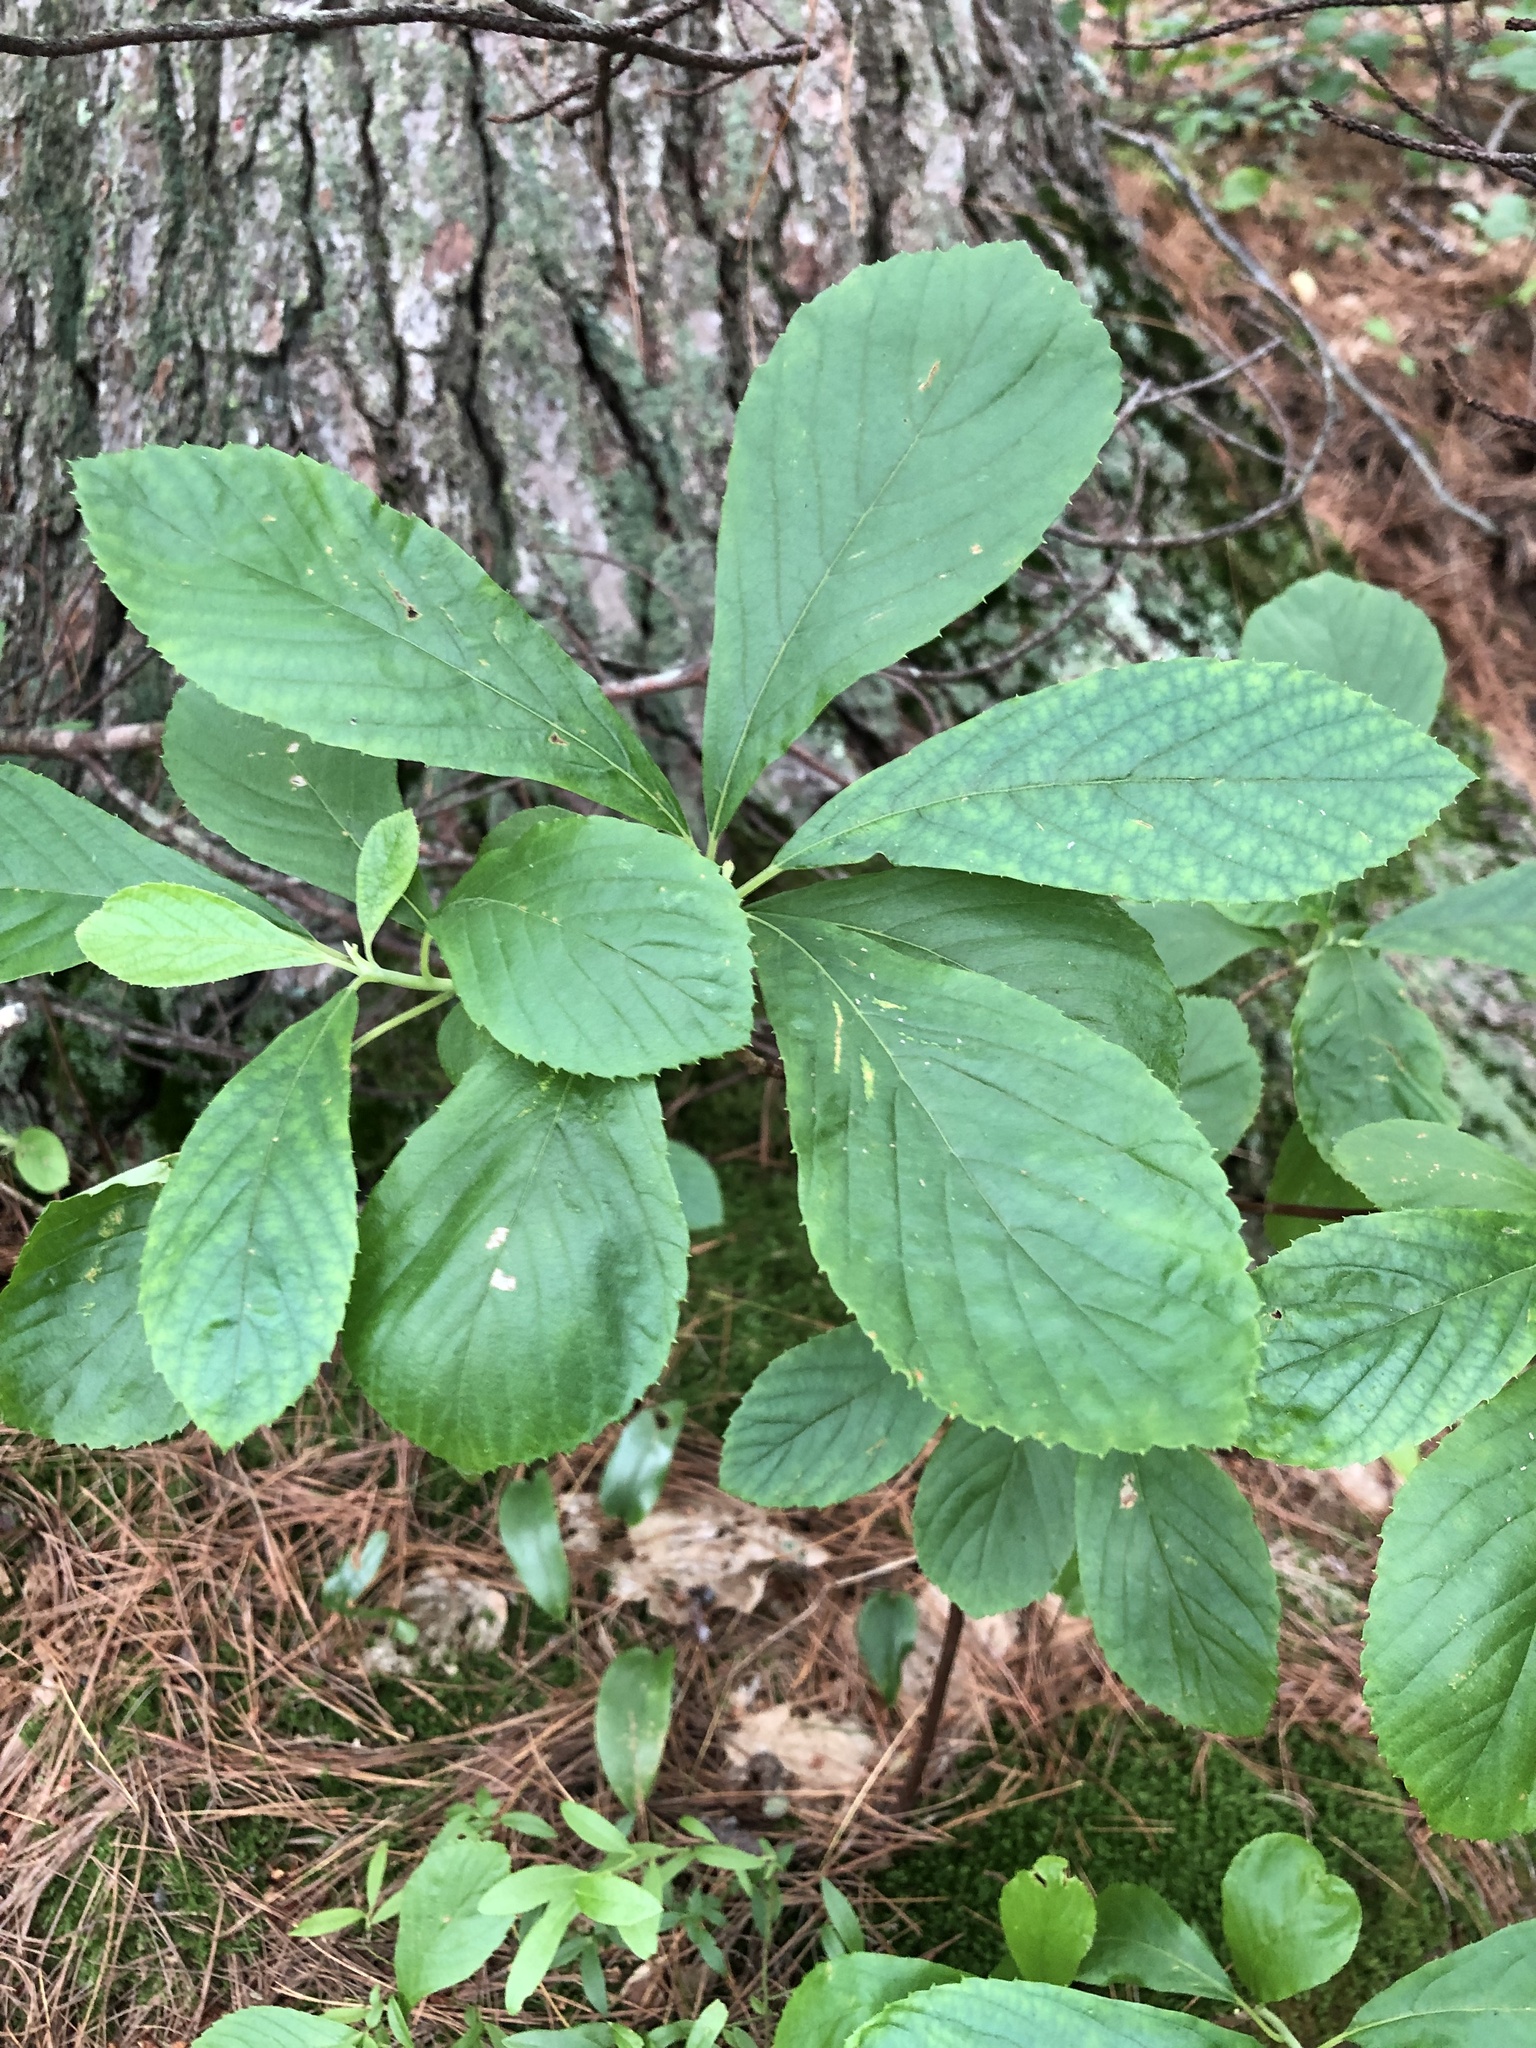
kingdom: Plantae
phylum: Tracheophyta
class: Magnoliopsida
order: Ericales
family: Clethraceae
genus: Clethra
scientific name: Clethra alnifolia
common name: Sweet pepperbush
